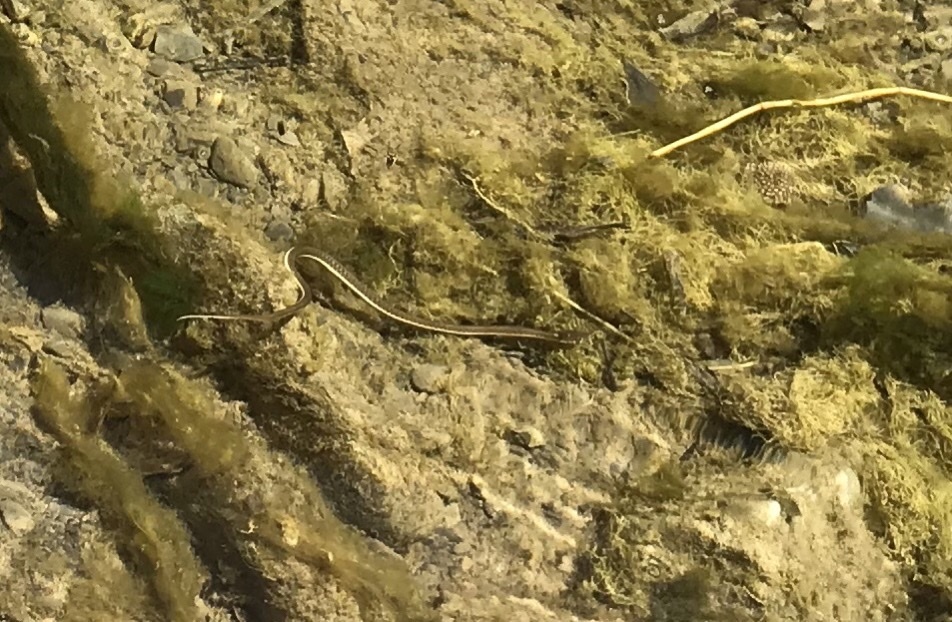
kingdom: Animalia
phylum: Chordata
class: Squamata
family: Colubridae
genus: Thamnophis
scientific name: Thamnophis hammondii
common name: Two-striped garter snake
